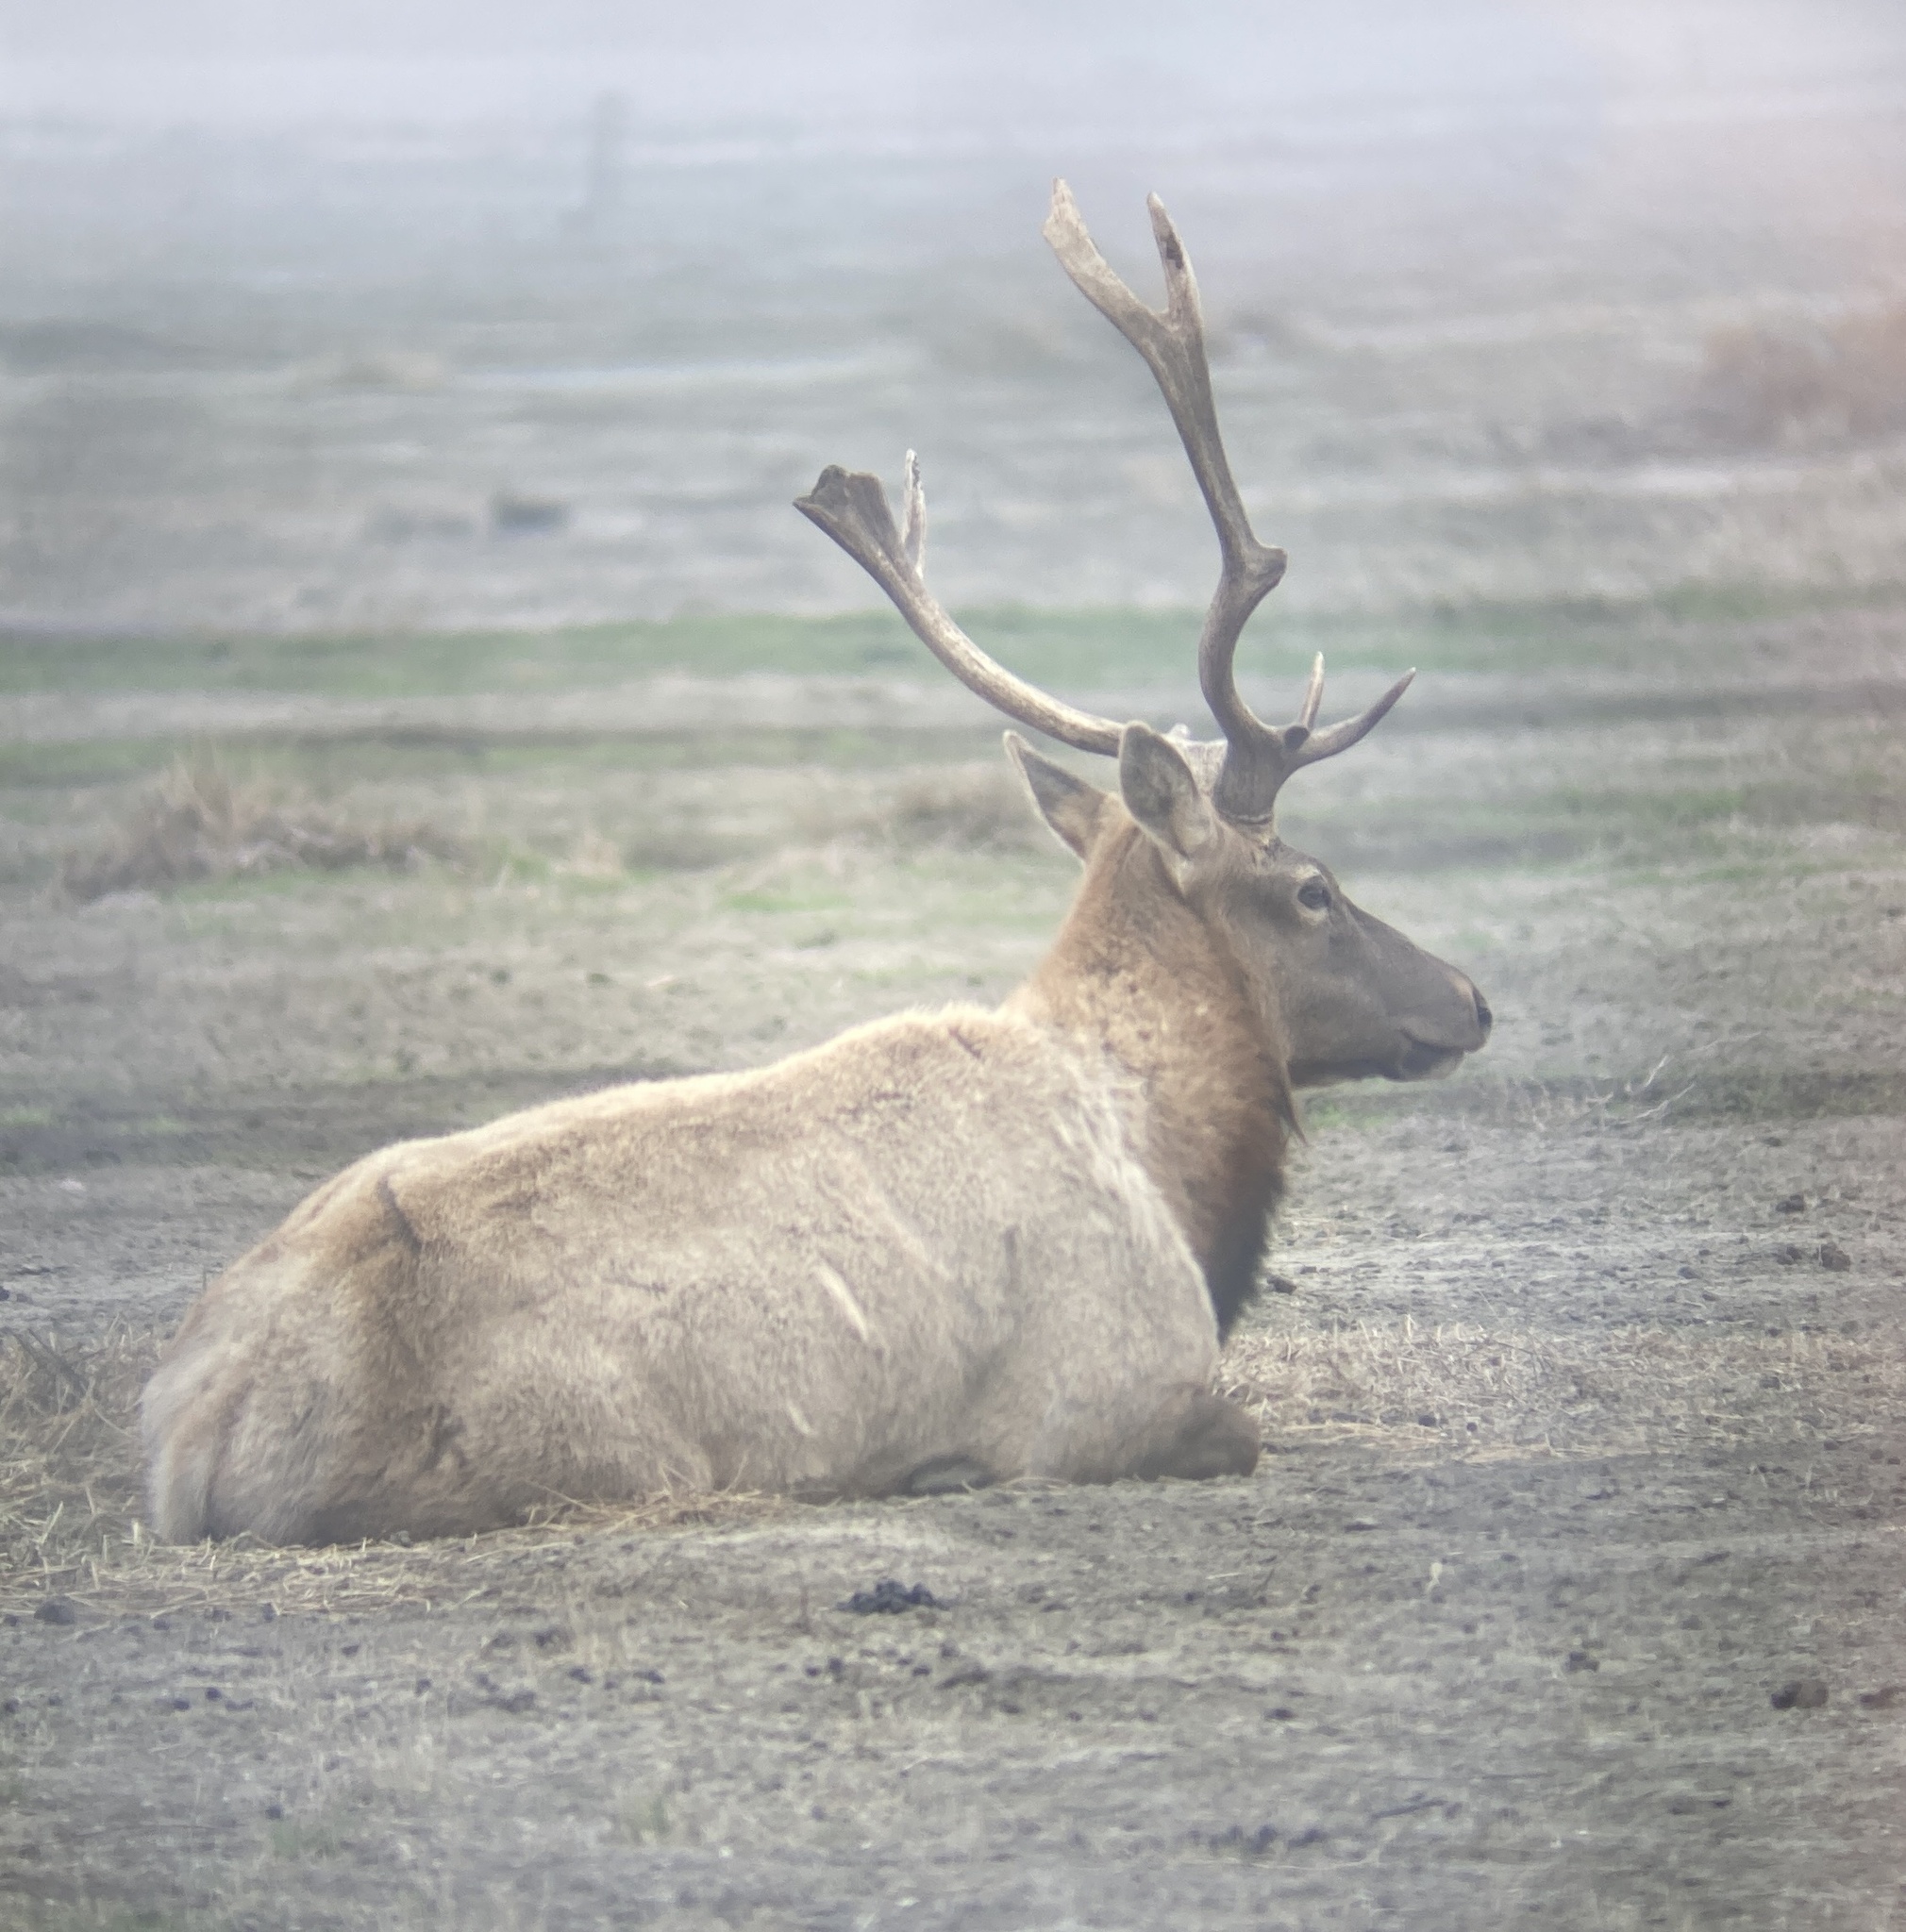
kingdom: Animalia
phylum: Chordata
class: Mammalia
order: Artiodactyla
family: Cervidae
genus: Cervus
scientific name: Cervus elaphus
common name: Red deer
